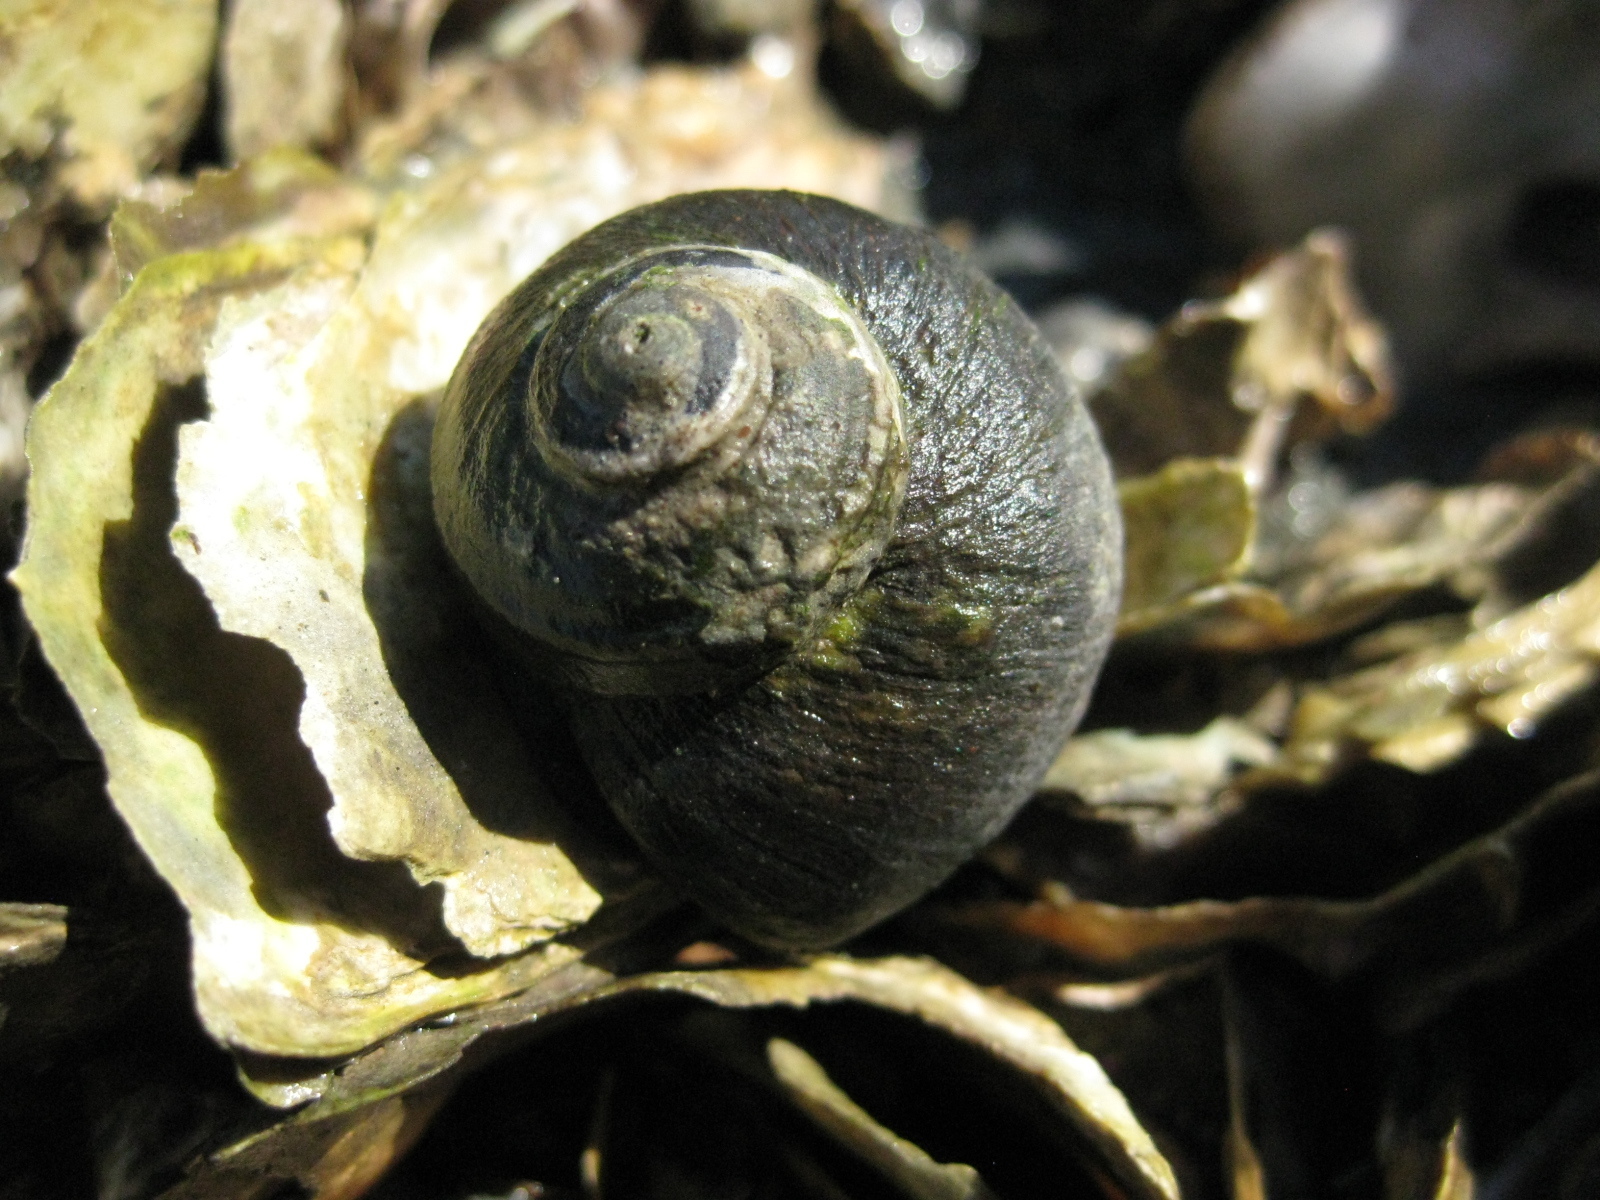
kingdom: Animalia
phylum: Mollusca
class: Gastropoda
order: Trochida
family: Turbinidae
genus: Lunella
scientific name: Lunella smaragda
